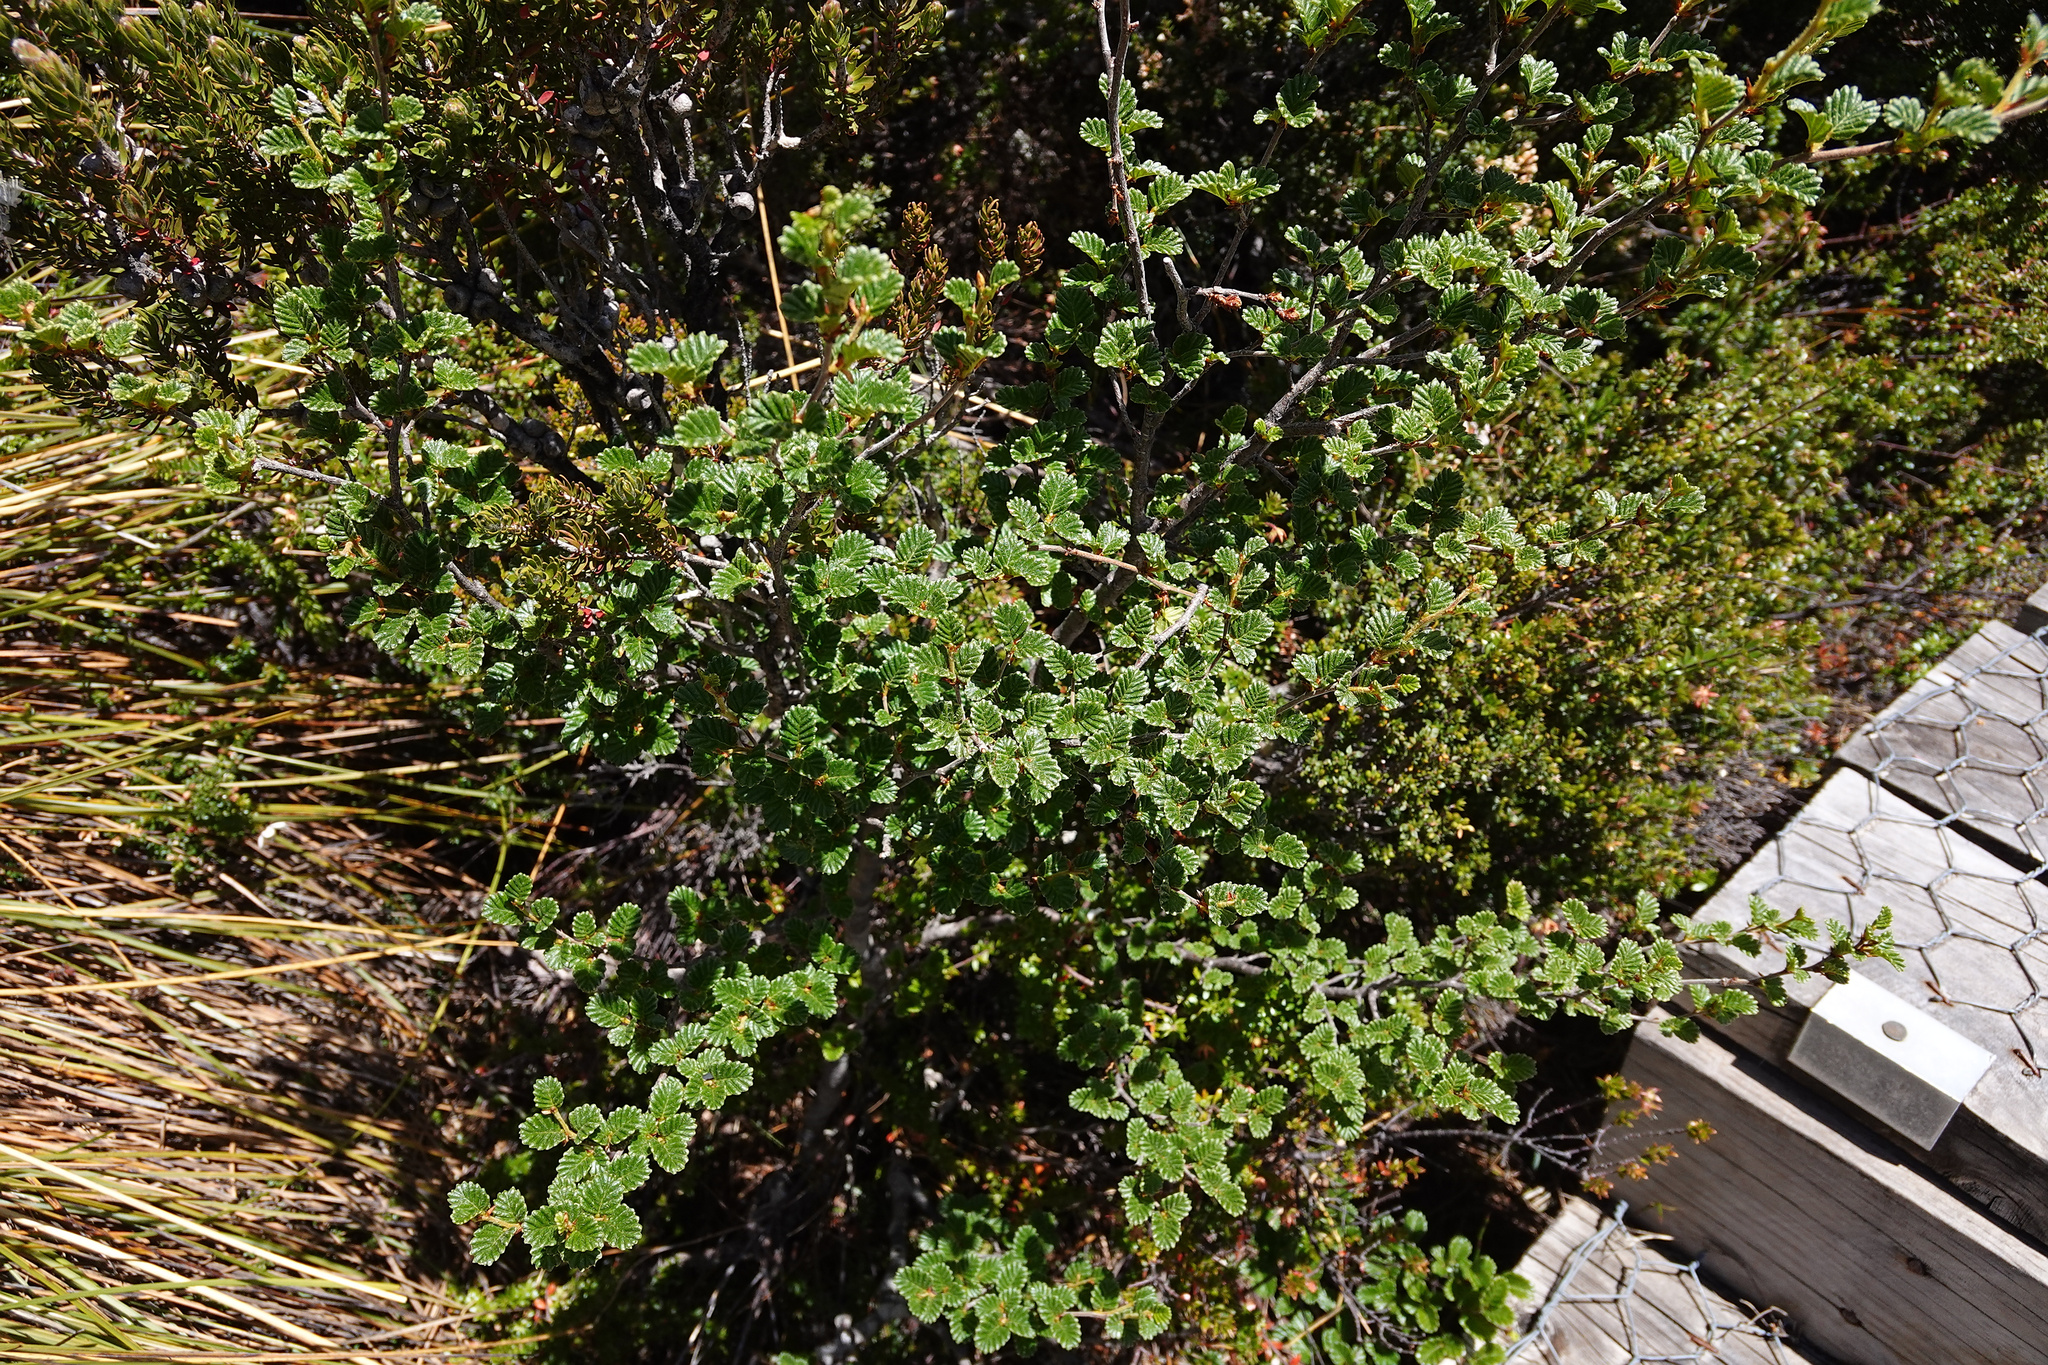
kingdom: Plantae
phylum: Tracheophyta
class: Magnoliopsida
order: Fagales
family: Nothofagaceae
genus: Nothofagus
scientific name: Nothofagus gunnii
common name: Tanglefoot
